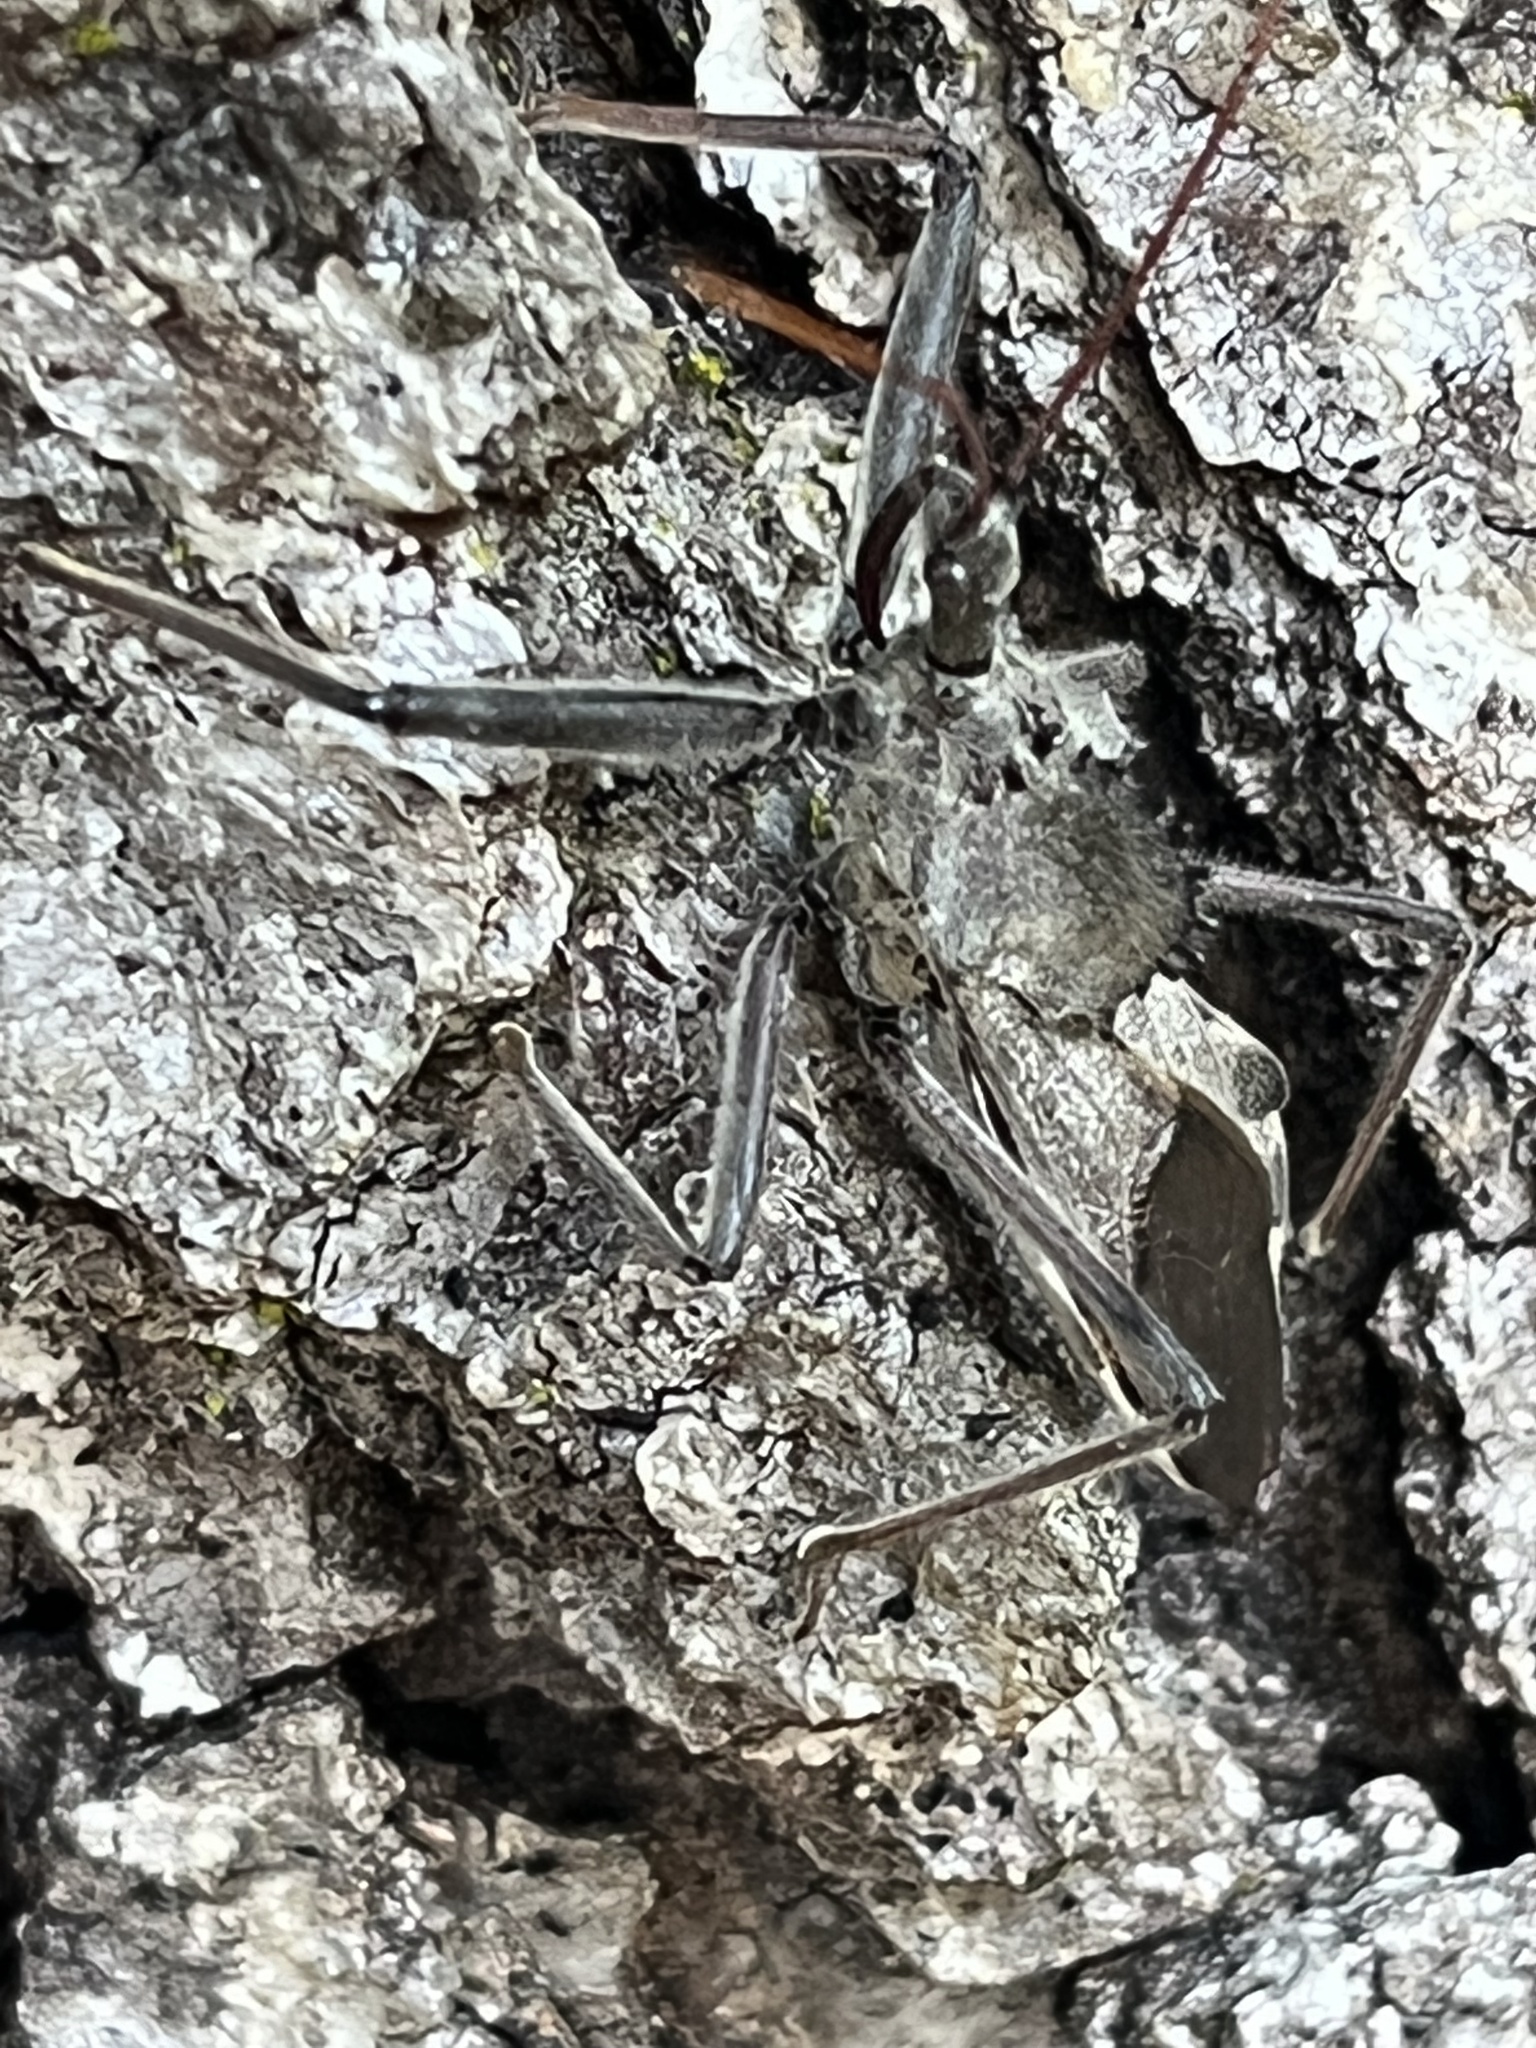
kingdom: Animalia
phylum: Arthropoda
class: Insecta
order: Hemiptera
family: Reduviidae
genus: Arilus
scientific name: Arilus cristatus
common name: North american wheel bug
